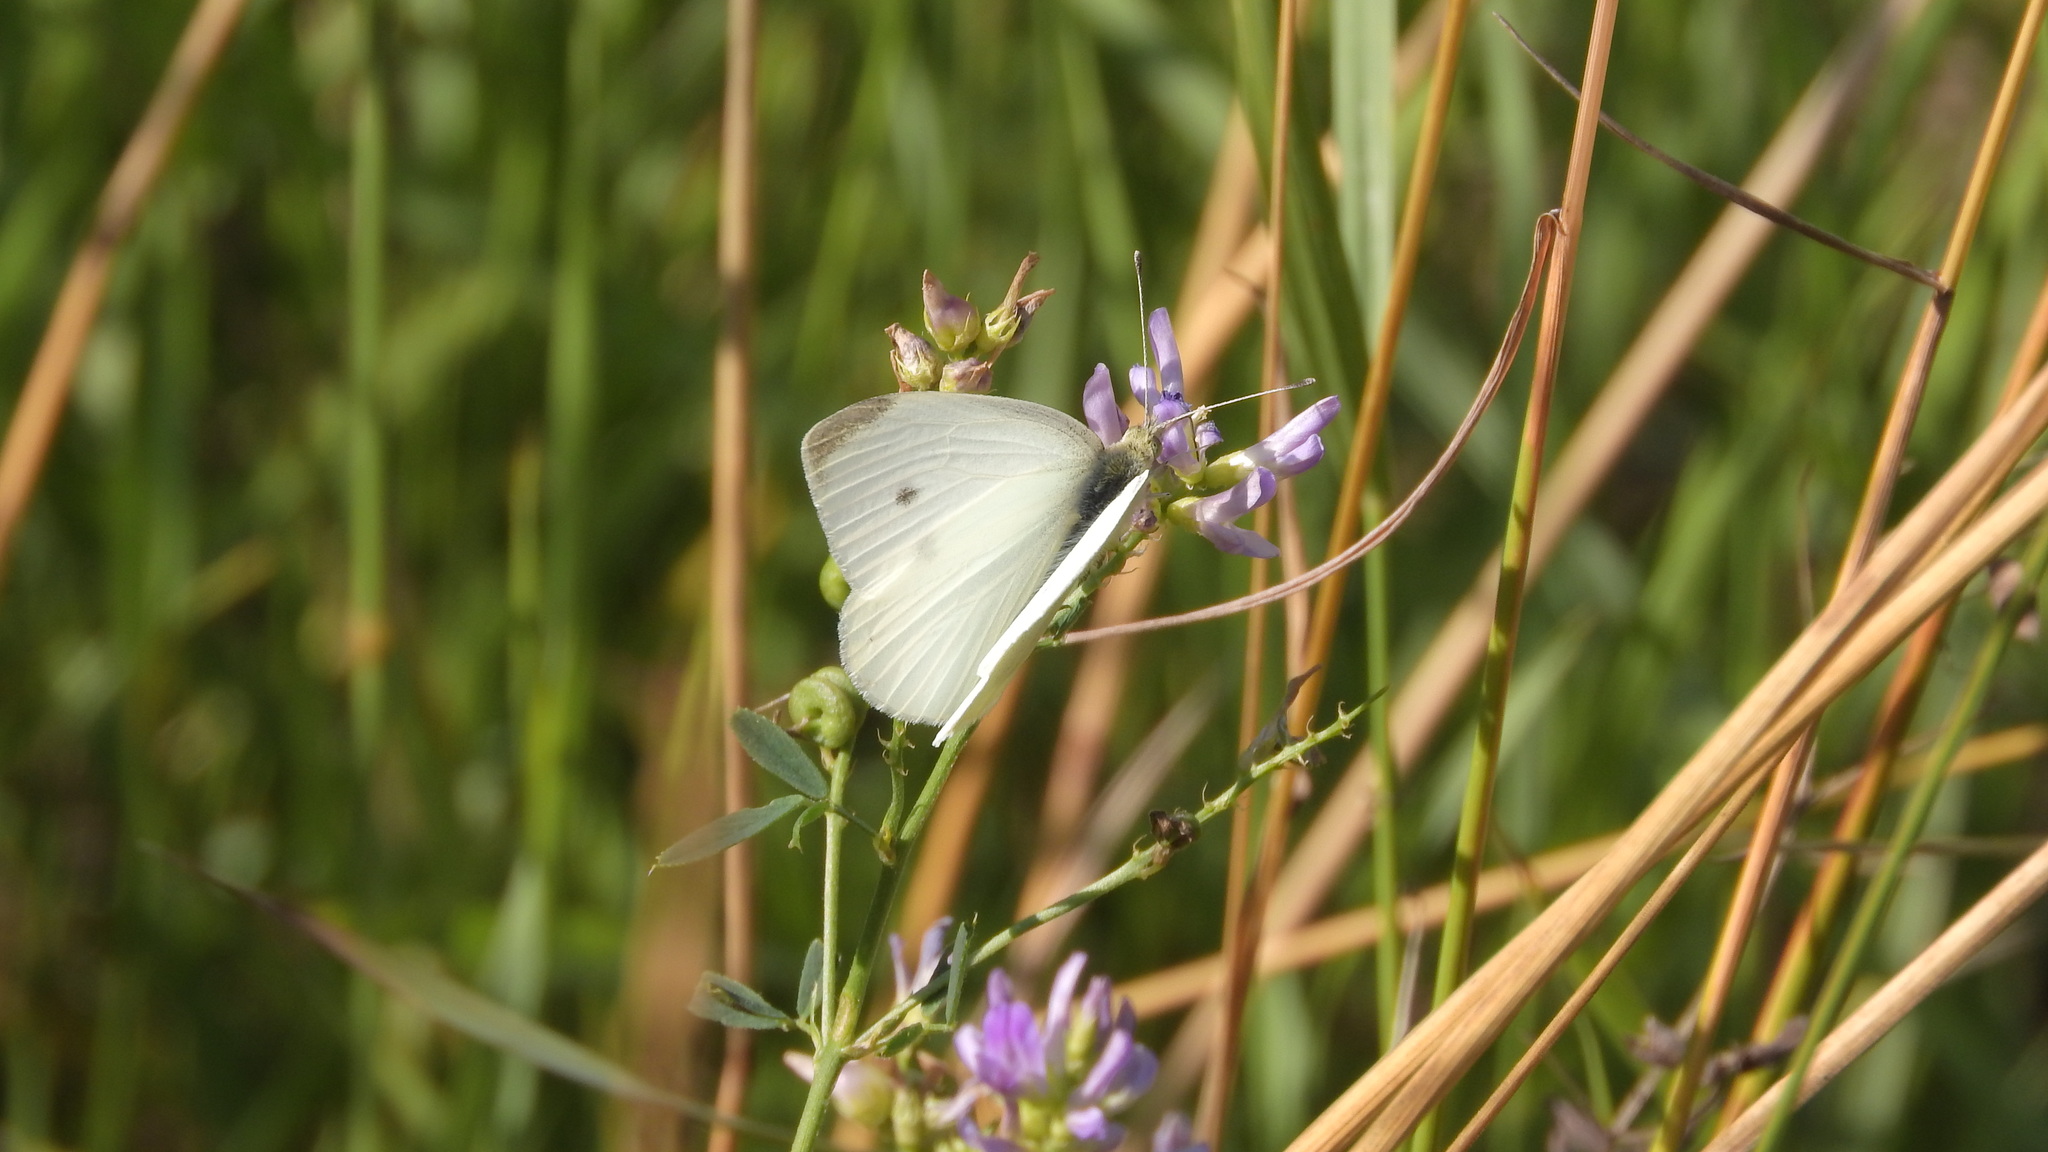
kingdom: Animalia
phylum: Arthropoda
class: Insecta
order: Lepidoptera
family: Pieridae
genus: Pieris
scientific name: Pieris rapae
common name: Small white
